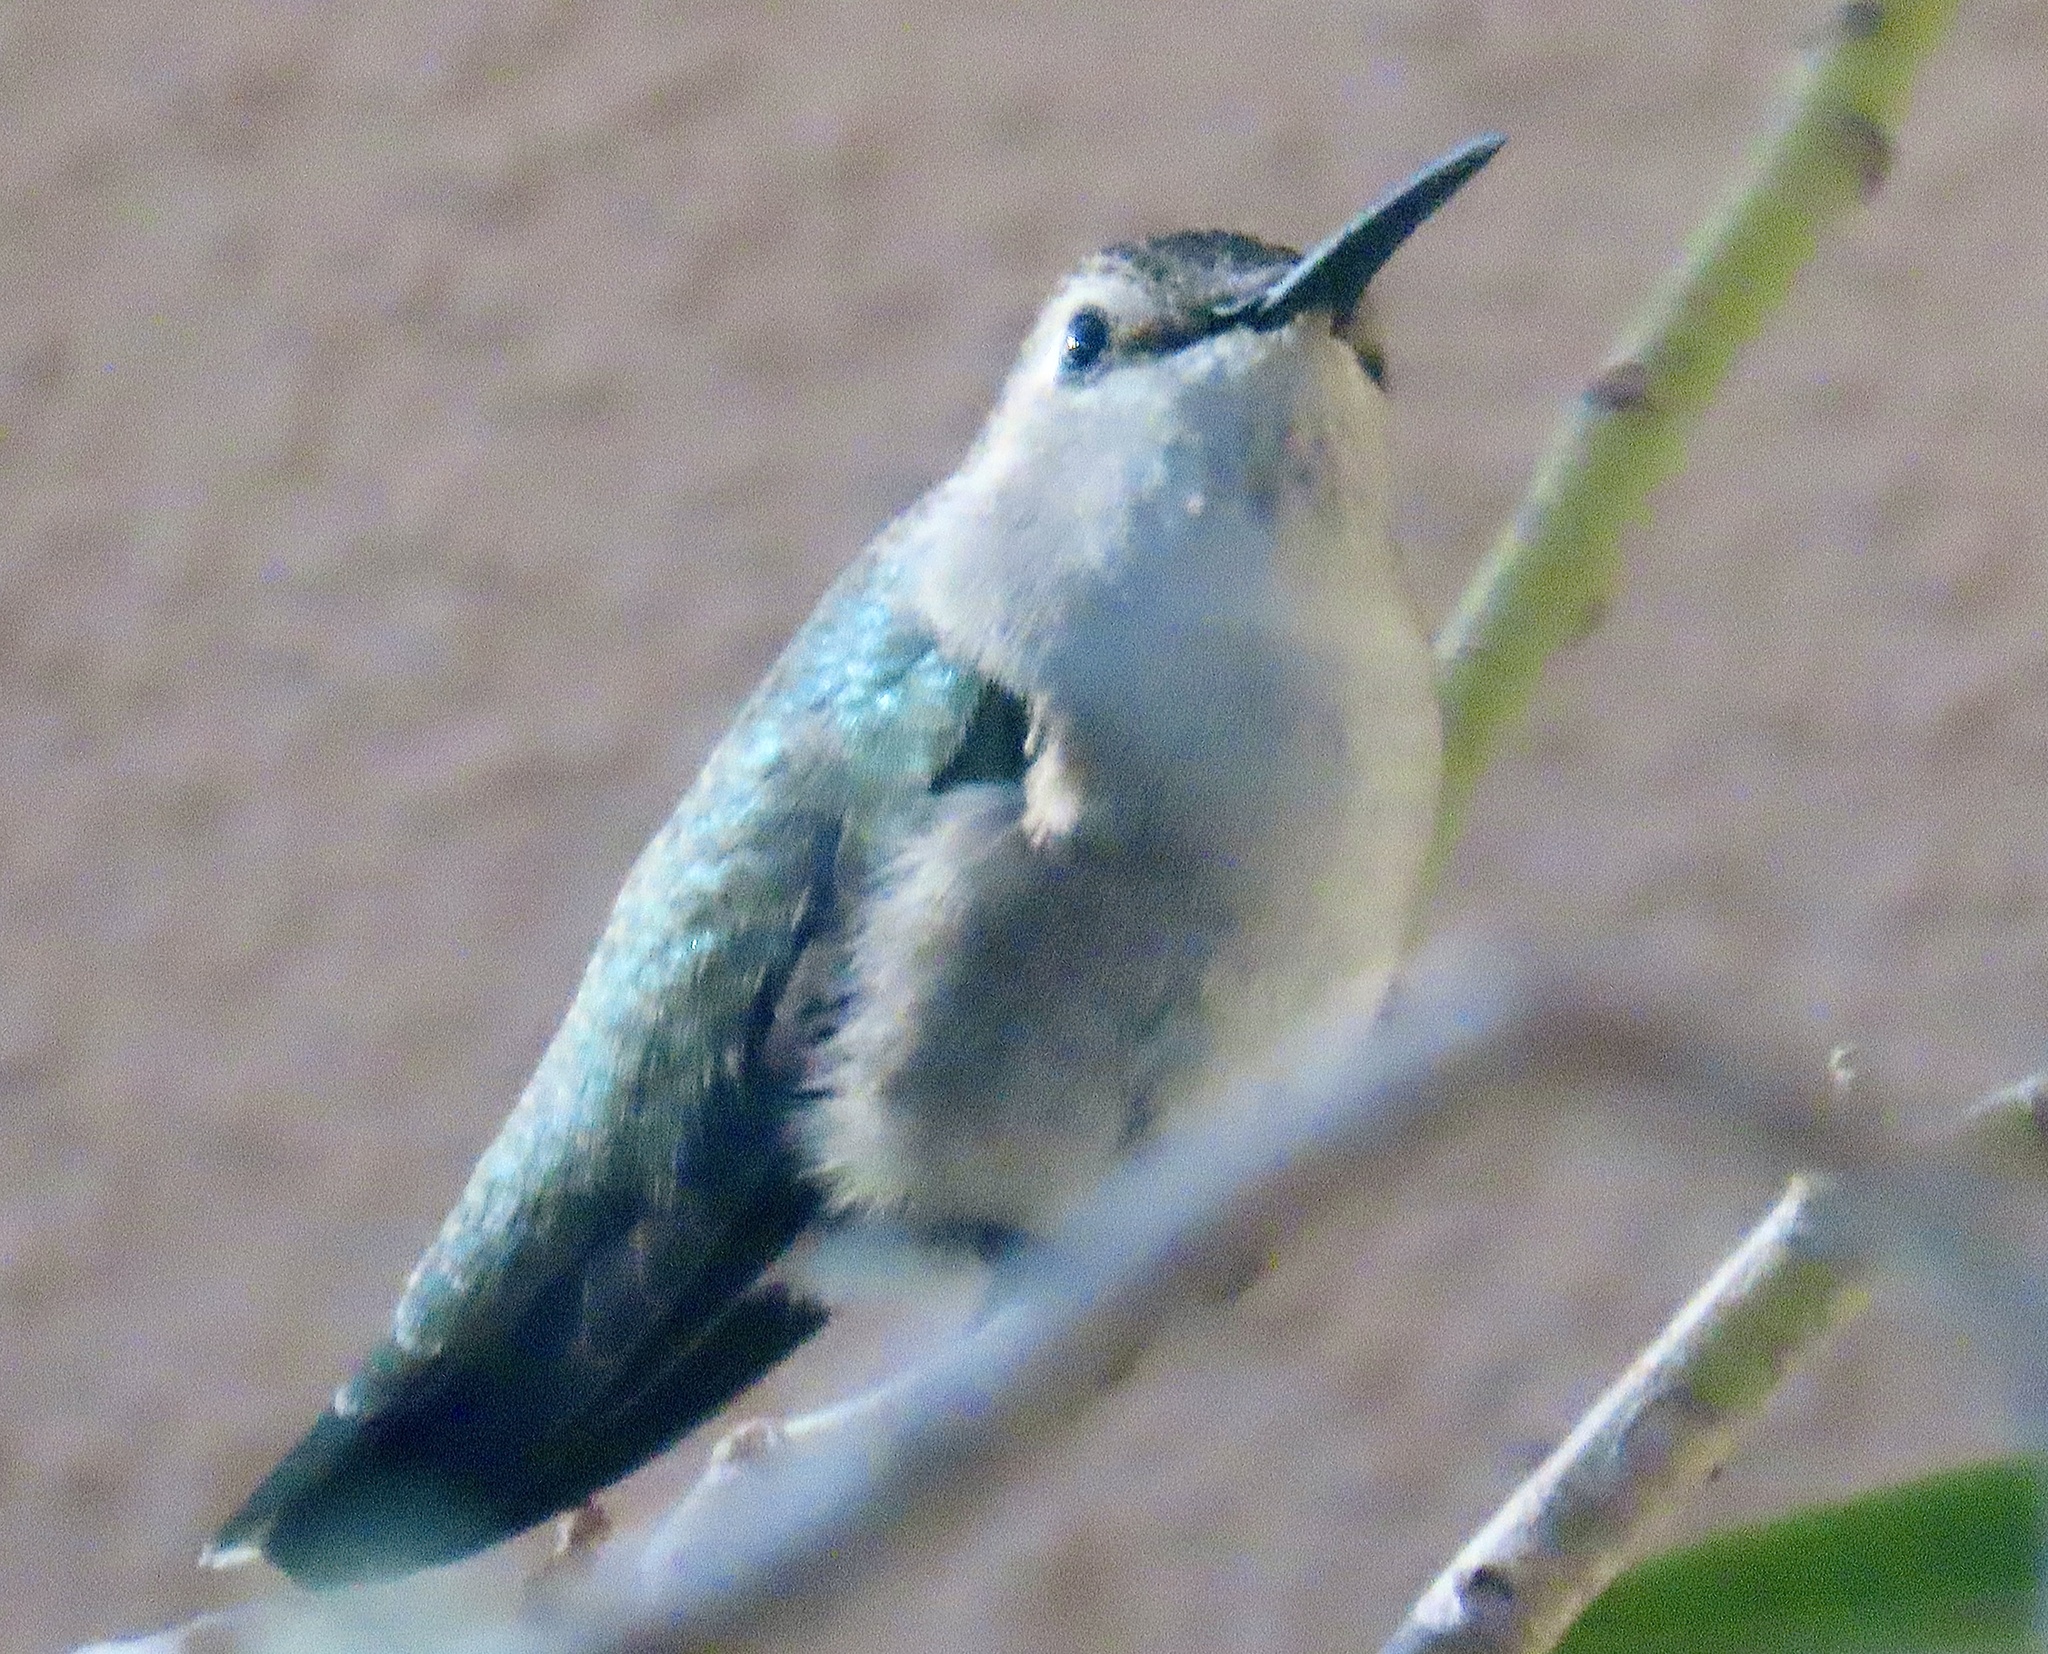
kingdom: Animalia
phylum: Chordata
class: Aves
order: Apodiformes
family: Trochilidae
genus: Calypte
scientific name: Calypte costae
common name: Costa's hummingbird
